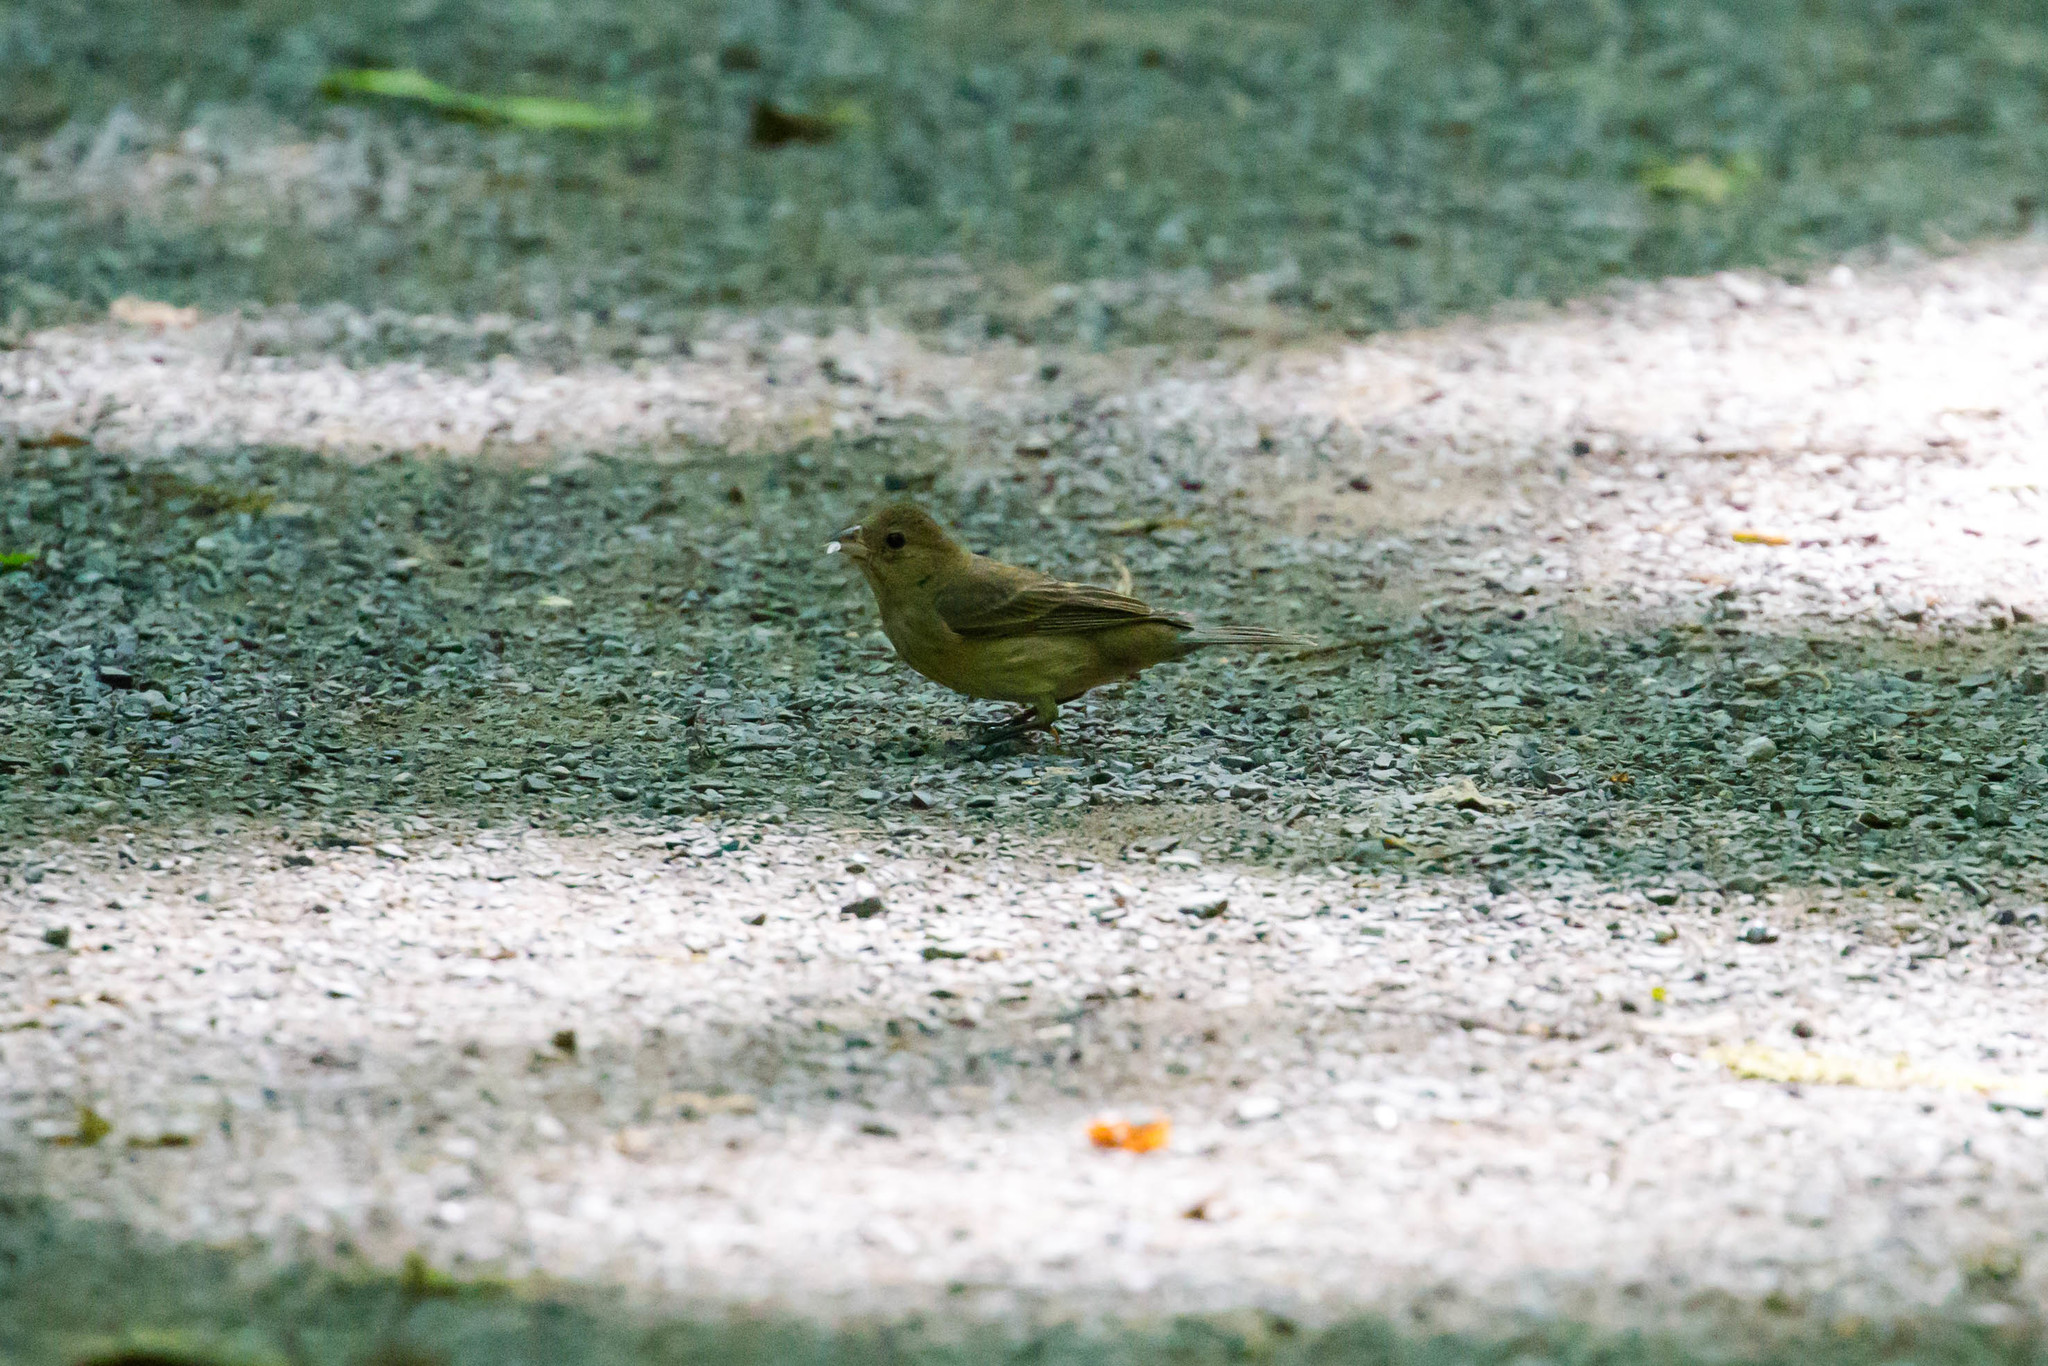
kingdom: Animalia
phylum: Chordata
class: Aves
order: Passeriformes
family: Cardinalidae
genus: Passerina
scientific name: Passerina cyanea
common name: Indigo bunting
